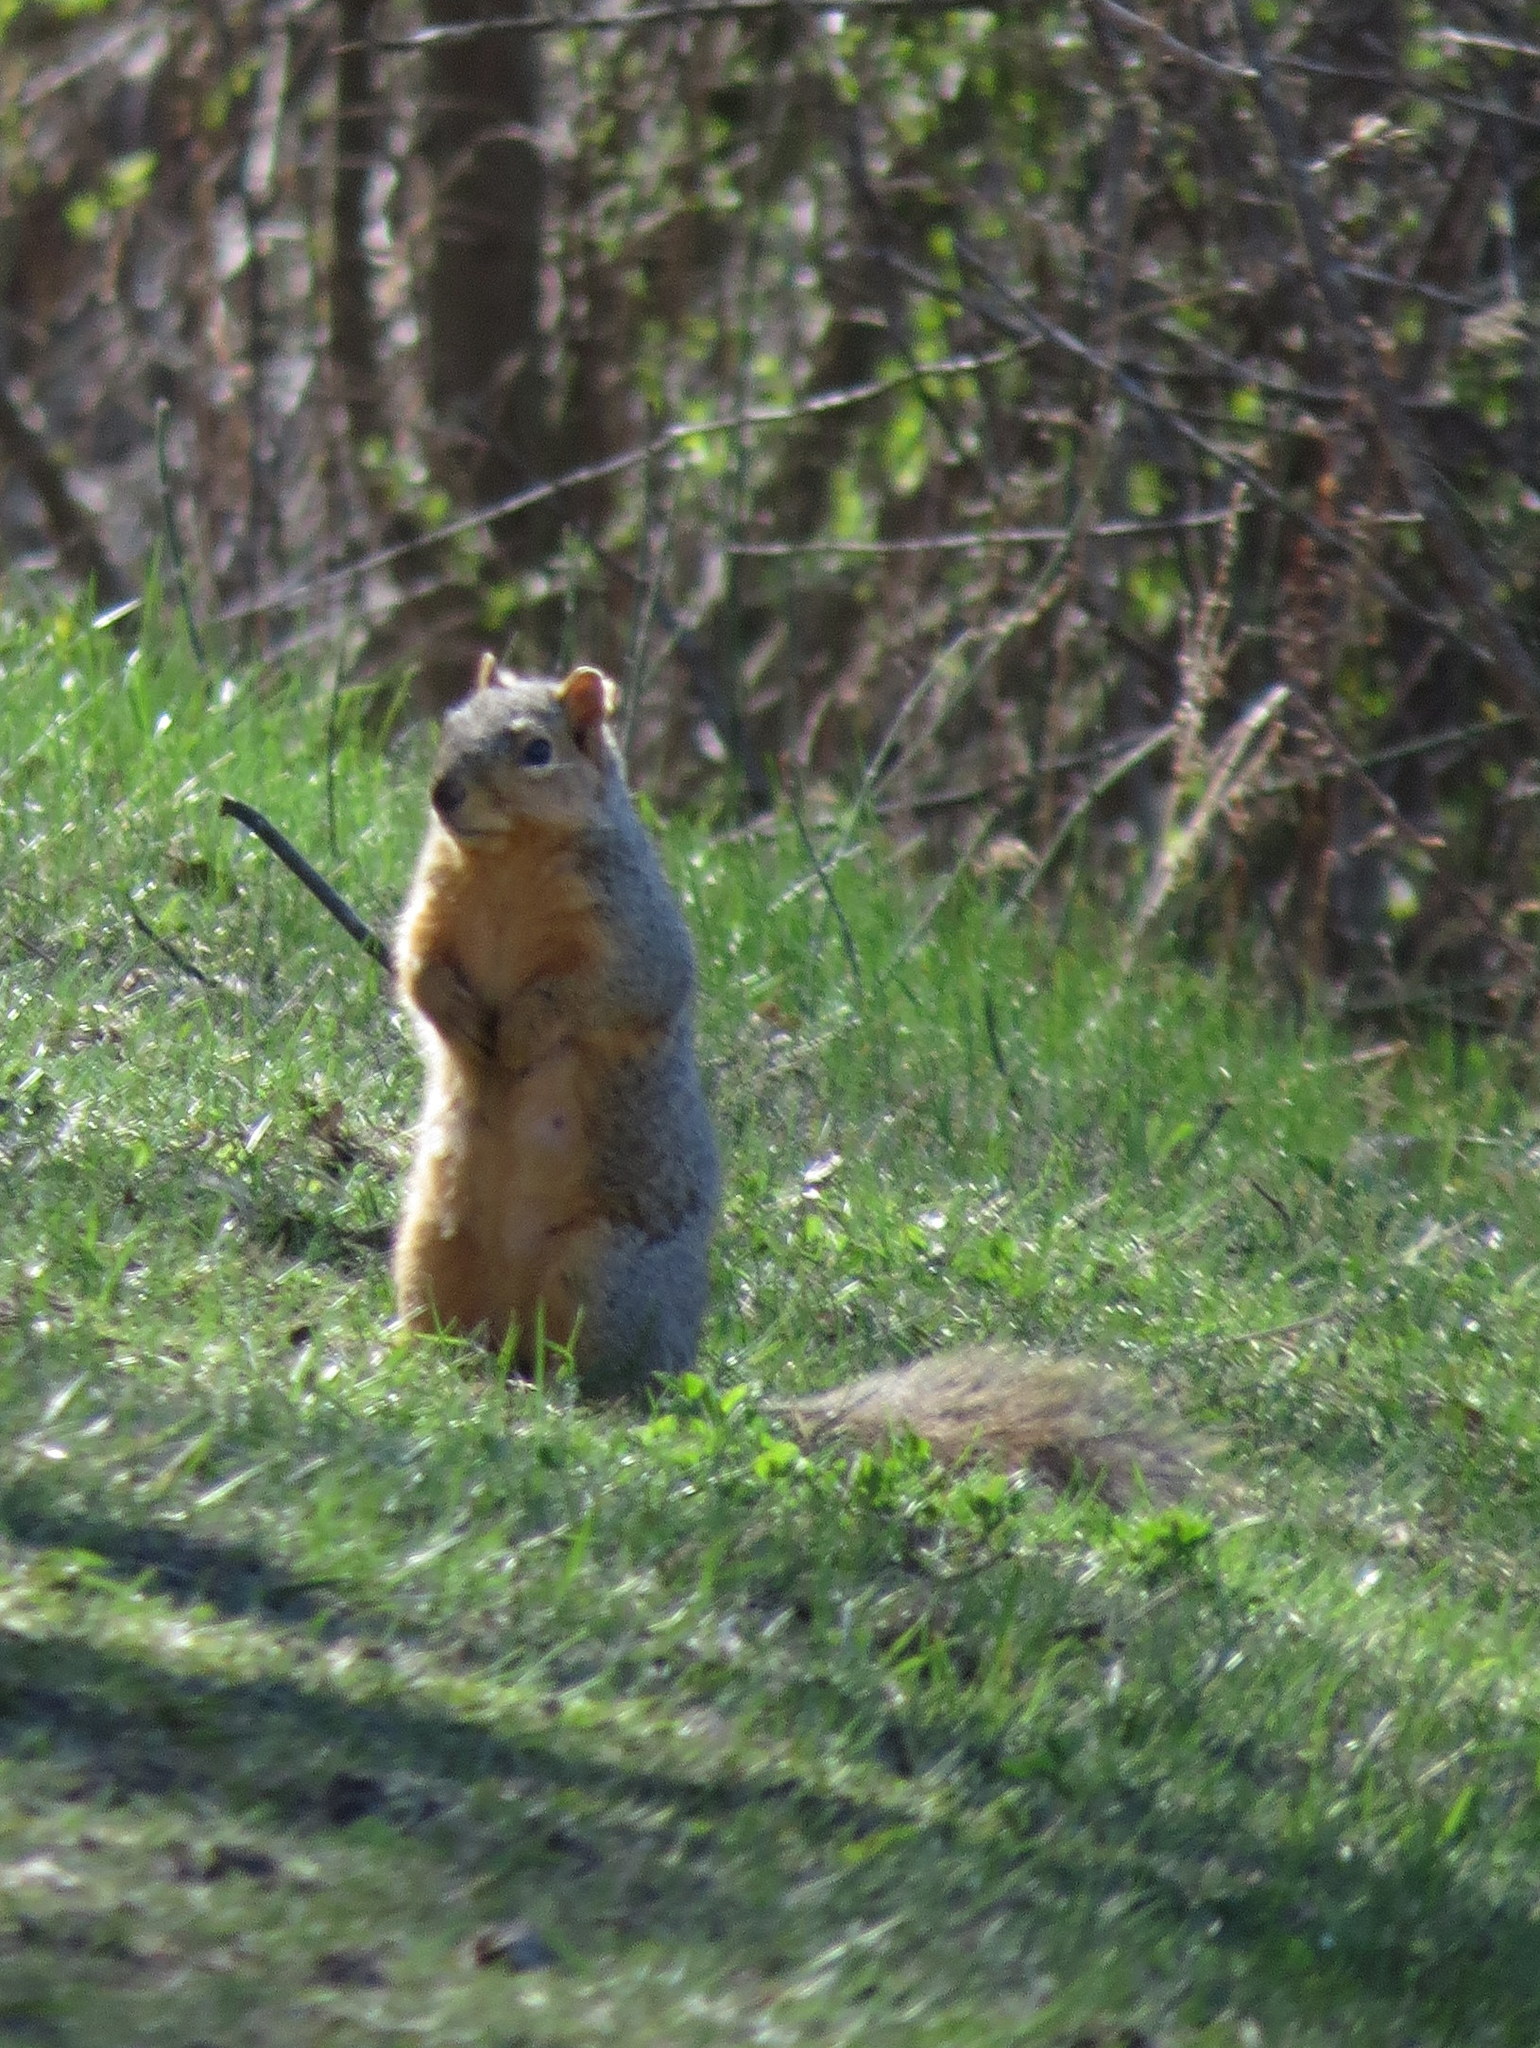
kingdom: Animalia
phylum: Chordata
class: Mammalia
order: Rodentia
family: Sciuridae
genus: Sciurus
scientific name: Sciurus niger
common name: Fox squirrel
